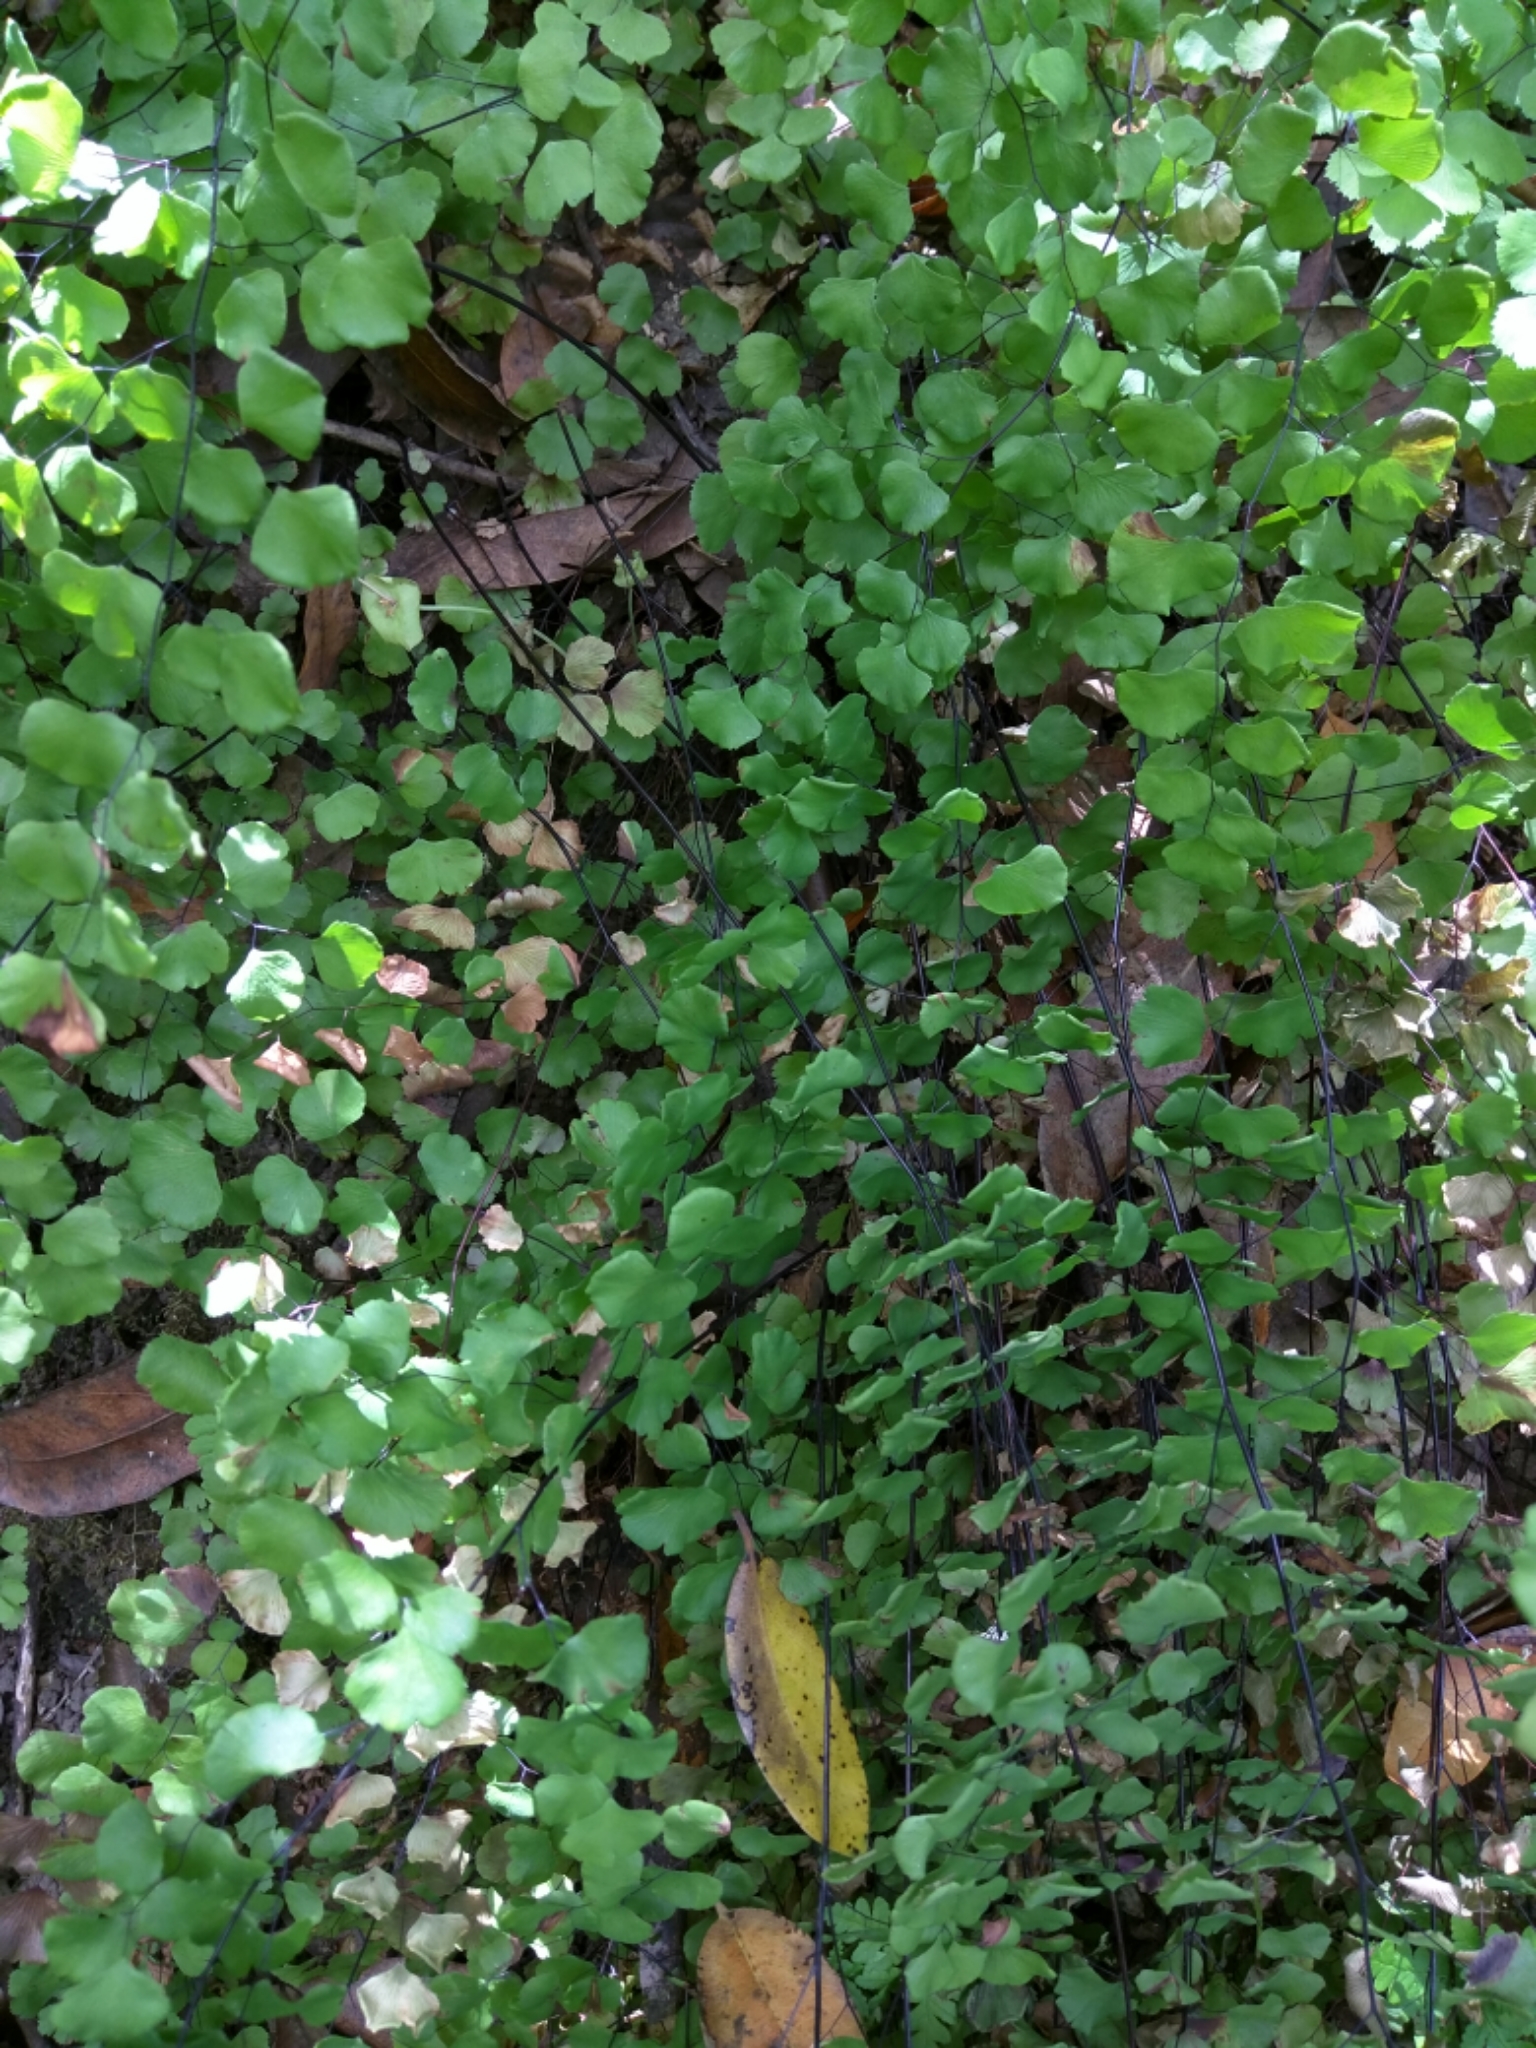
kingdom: Plantae
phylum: Tracheophyta
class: Polypodiopsida
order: Polypodiales
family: Pteridaceae
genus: Adiantum
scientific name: Adiantum jordanii
